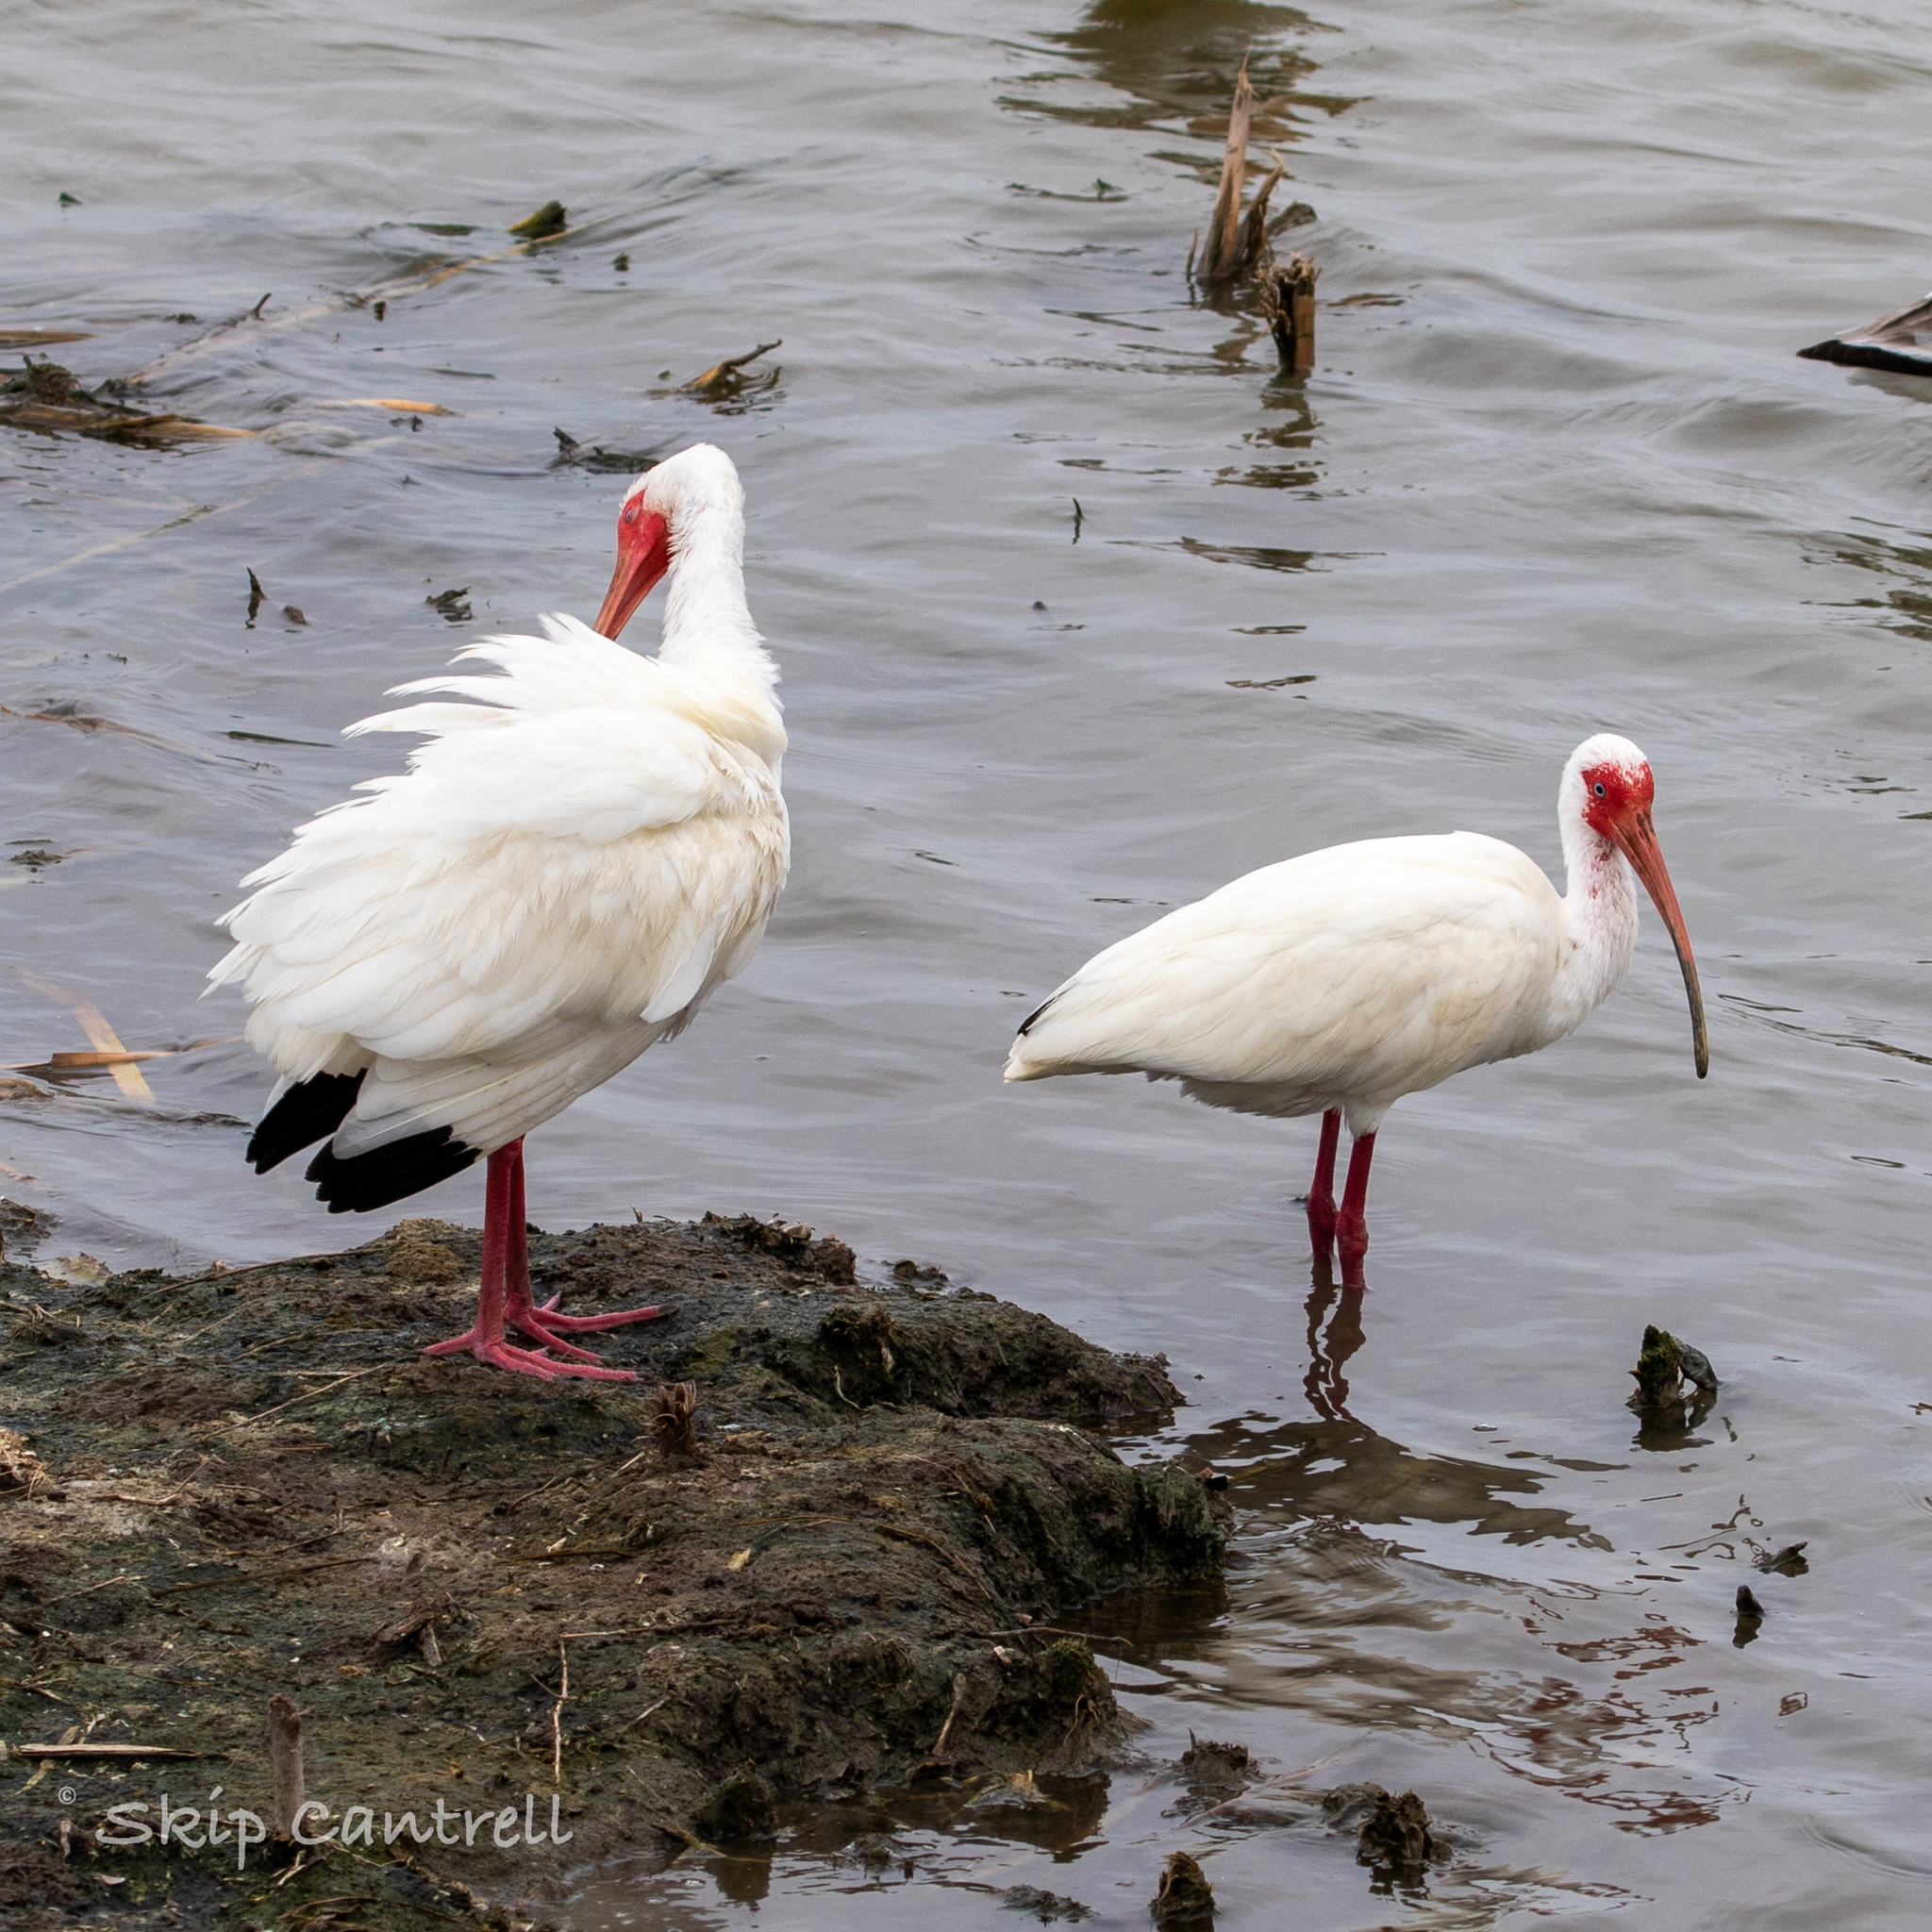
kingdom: Animalia
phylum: Chordata
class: Aves
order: Pelecaniformes
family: Threskiornithidae
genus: Eudocimus
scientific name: Eudocimus albus
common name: White ibis
